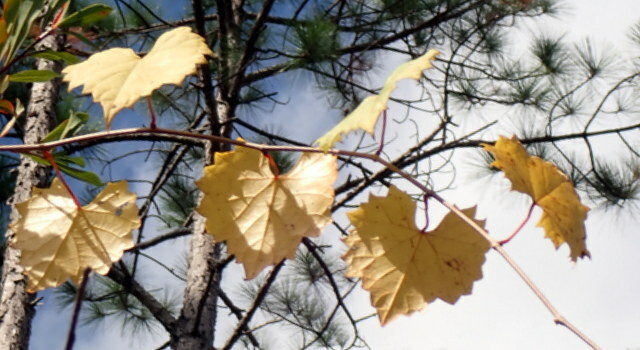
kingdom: Plantae
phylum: Tracheophyta
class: Magnoliopsida
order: Vitales
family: Vitaceae
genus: Vitis
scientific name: Vitis rotundifolia
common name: Muscadine grape
